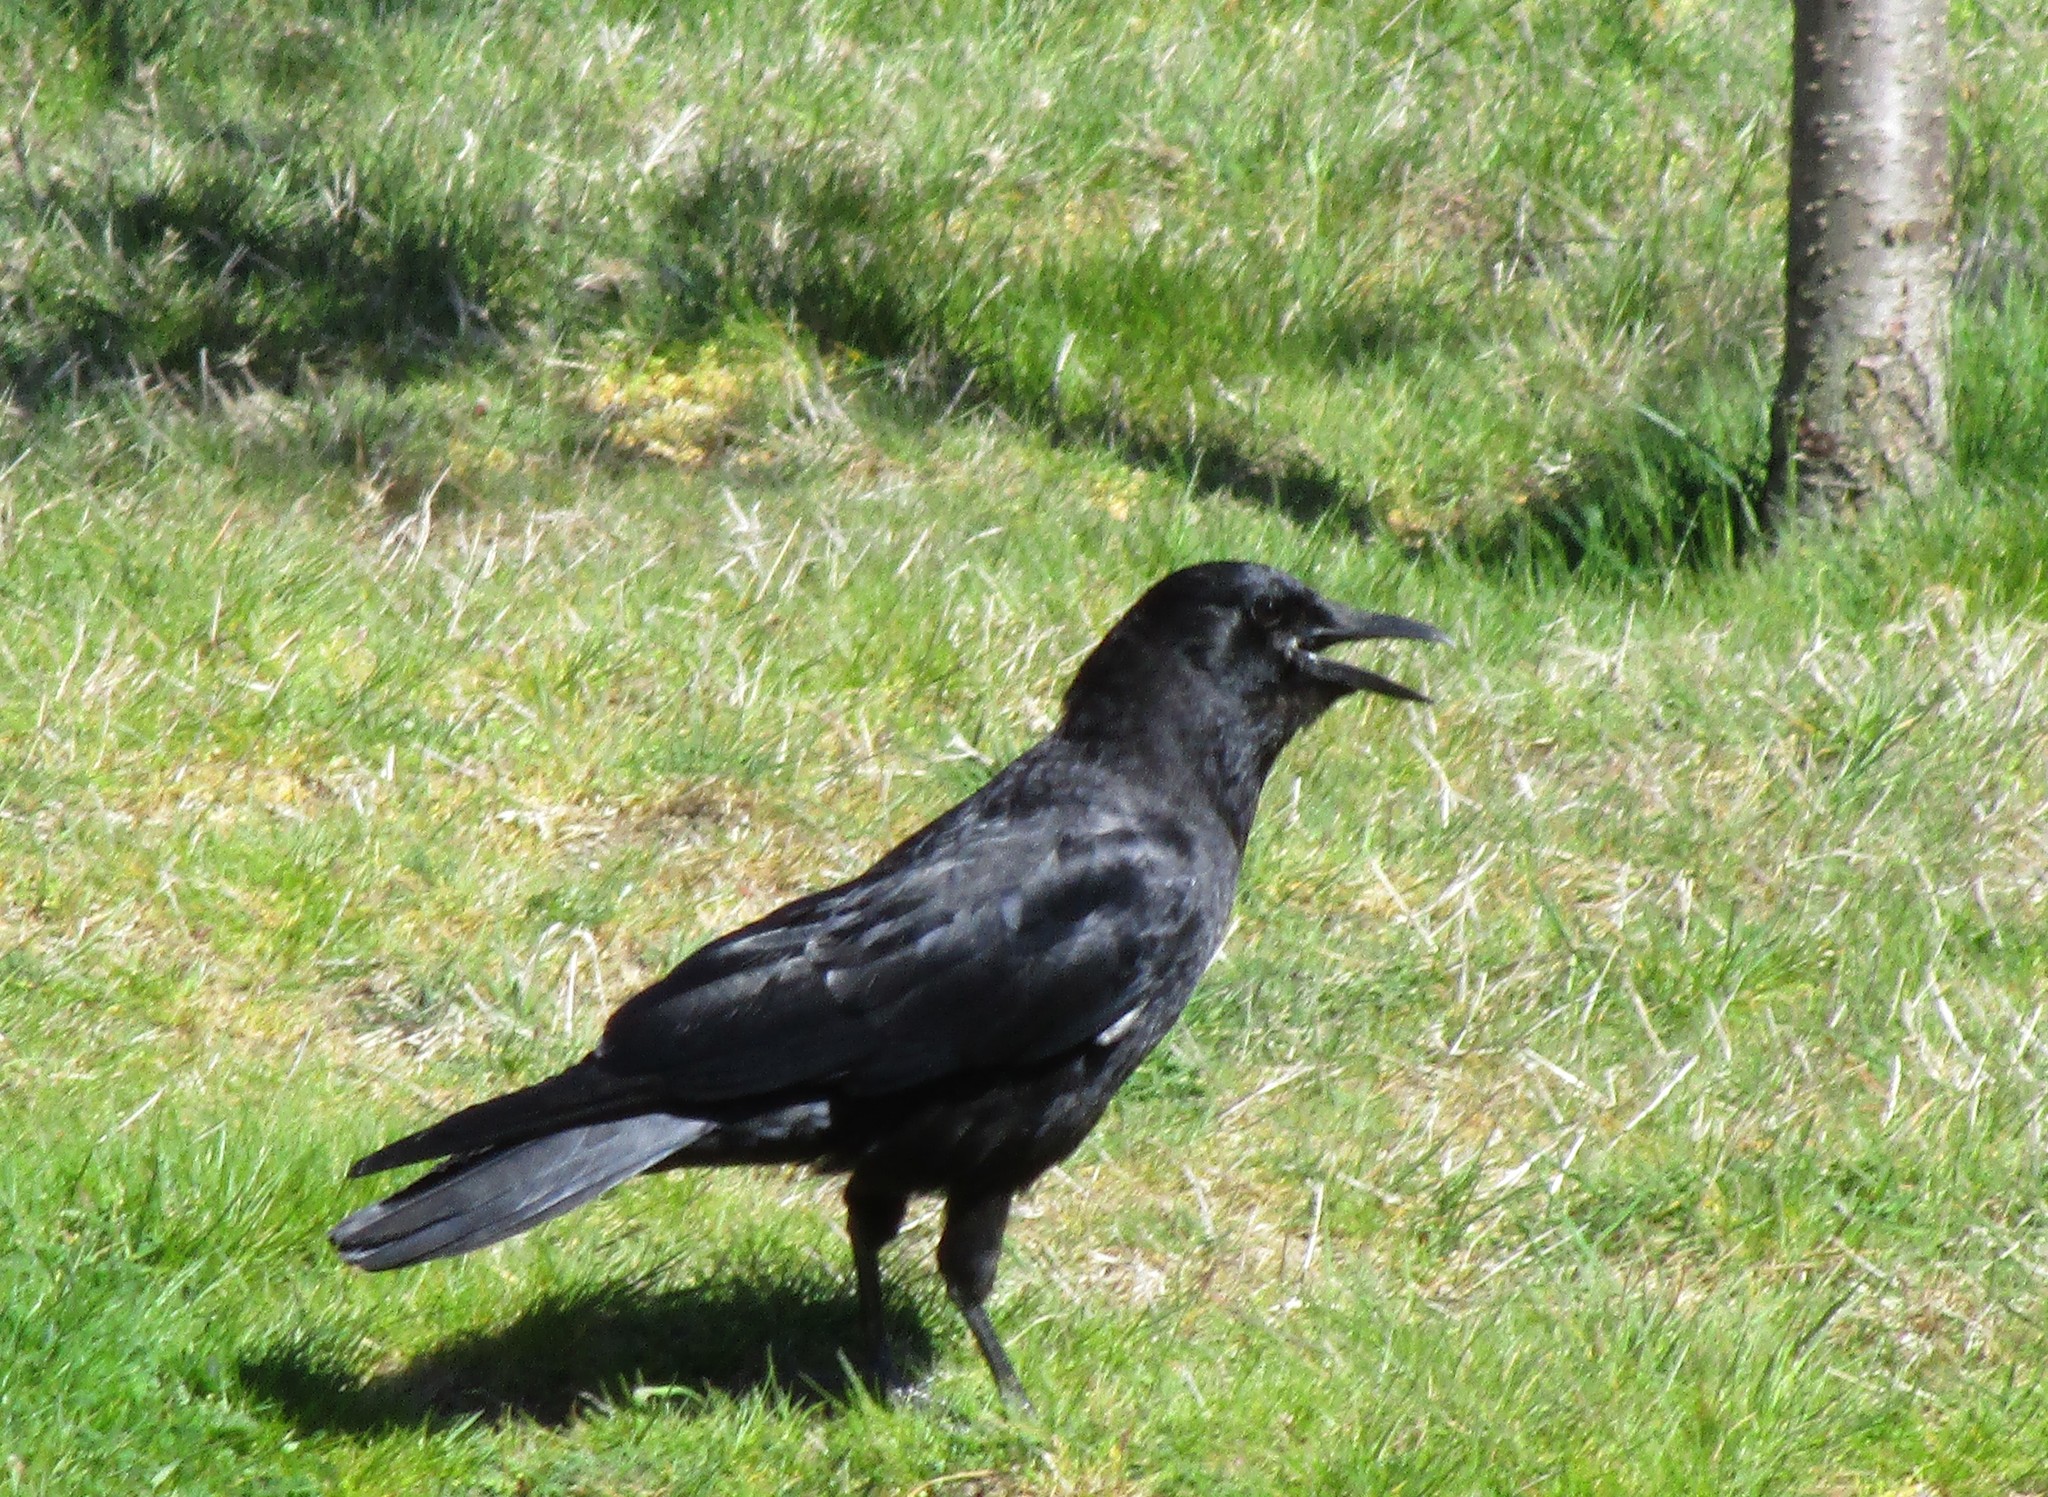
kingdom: Animalia
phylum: Chordata
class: Aves
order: Passeriformes
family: Corvidae
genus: Corvus
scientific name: Corvus brachyrhynchos
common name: American crow
